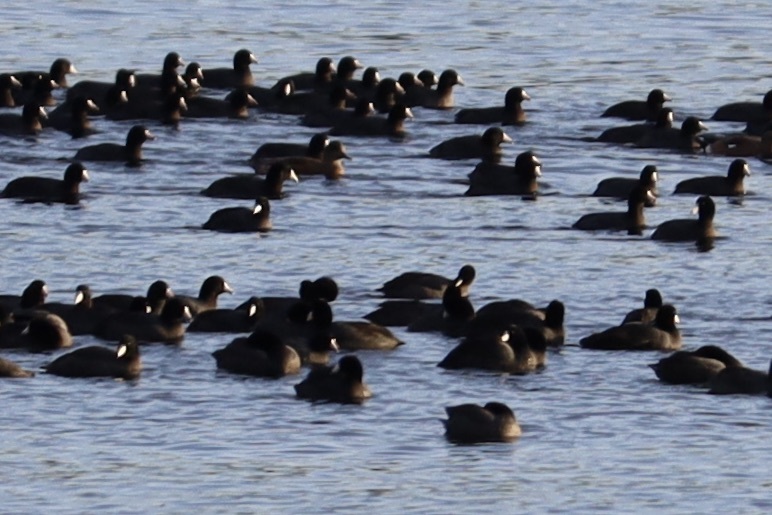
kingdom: Animalia
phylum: Chordata
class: Aves
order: Gruiformes
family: Rallidae
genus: Fulica
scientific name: Fulica americana
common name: American coot
